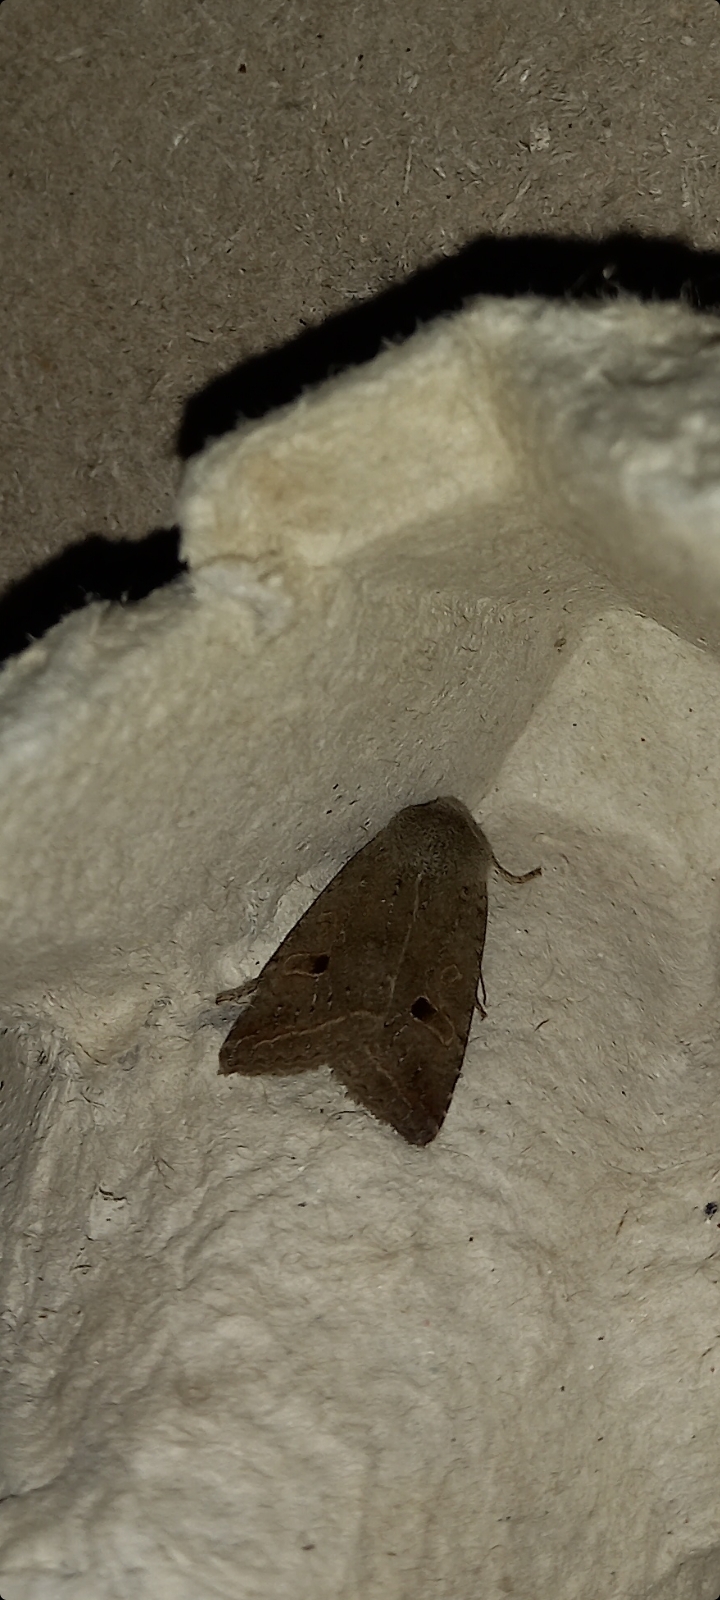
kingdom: Animalia
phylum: Arthropoda
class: Insecta
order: Lepidoptera
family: Noctuidae
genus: Agrochola
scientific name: Agrochola lota
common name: Red-line quaker
